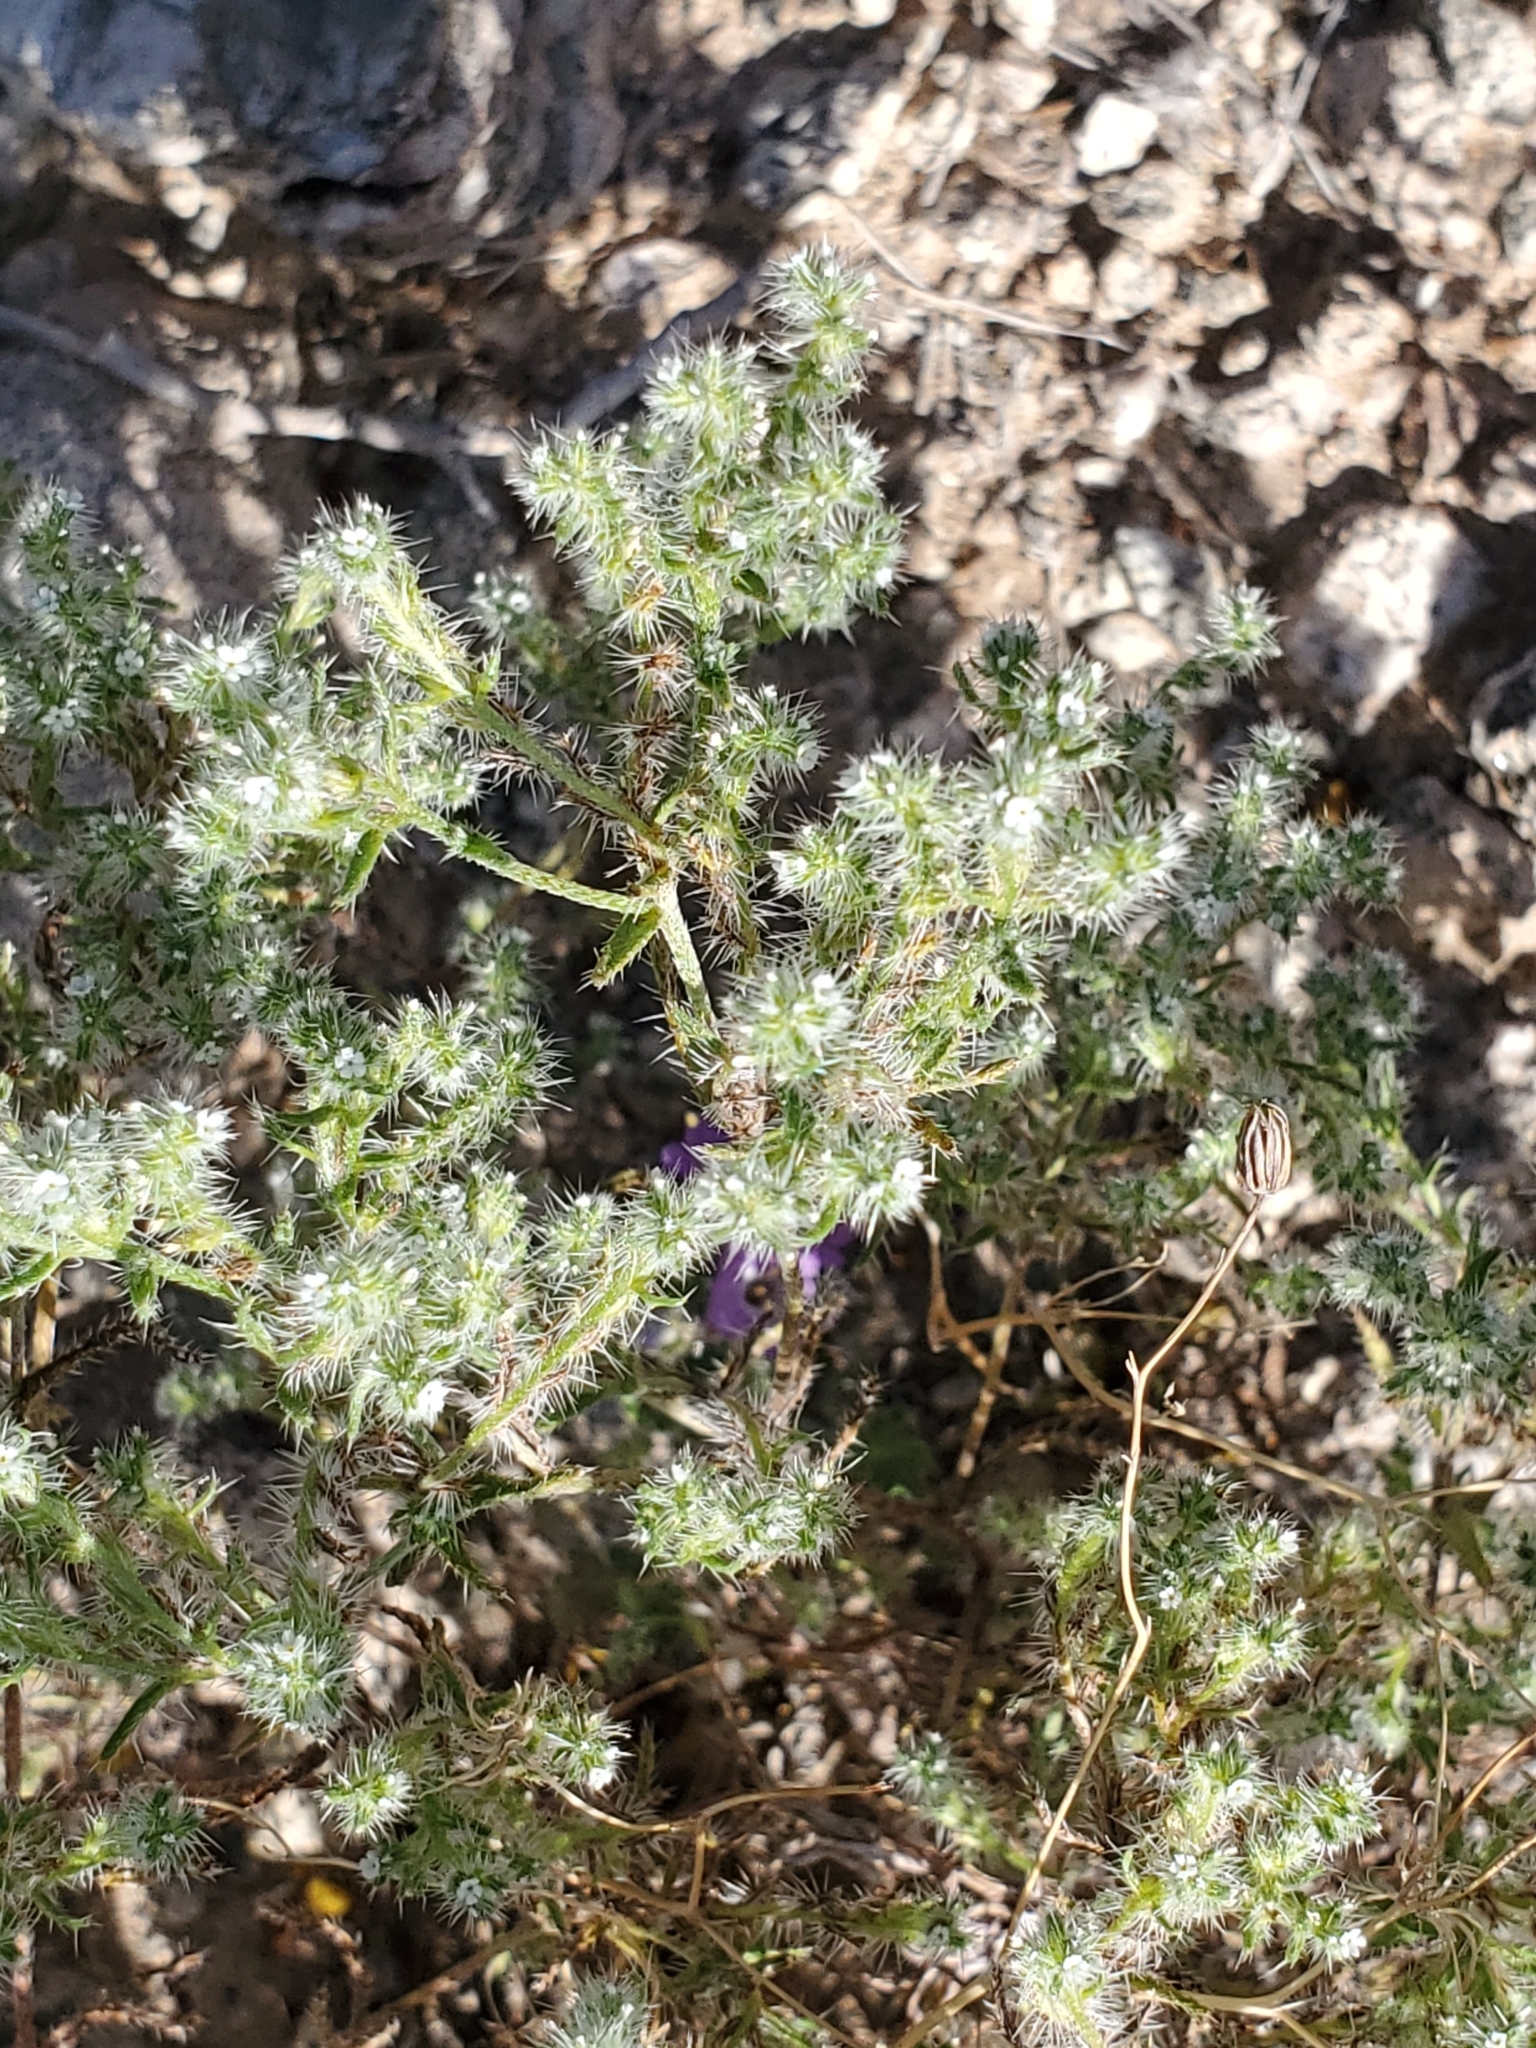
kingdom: Plantae
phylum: Tracheophyta
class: Magnoliopsida
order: Boraginales
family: Boraginaceae
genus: Cryptantha
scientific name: Cryptantha maritima
